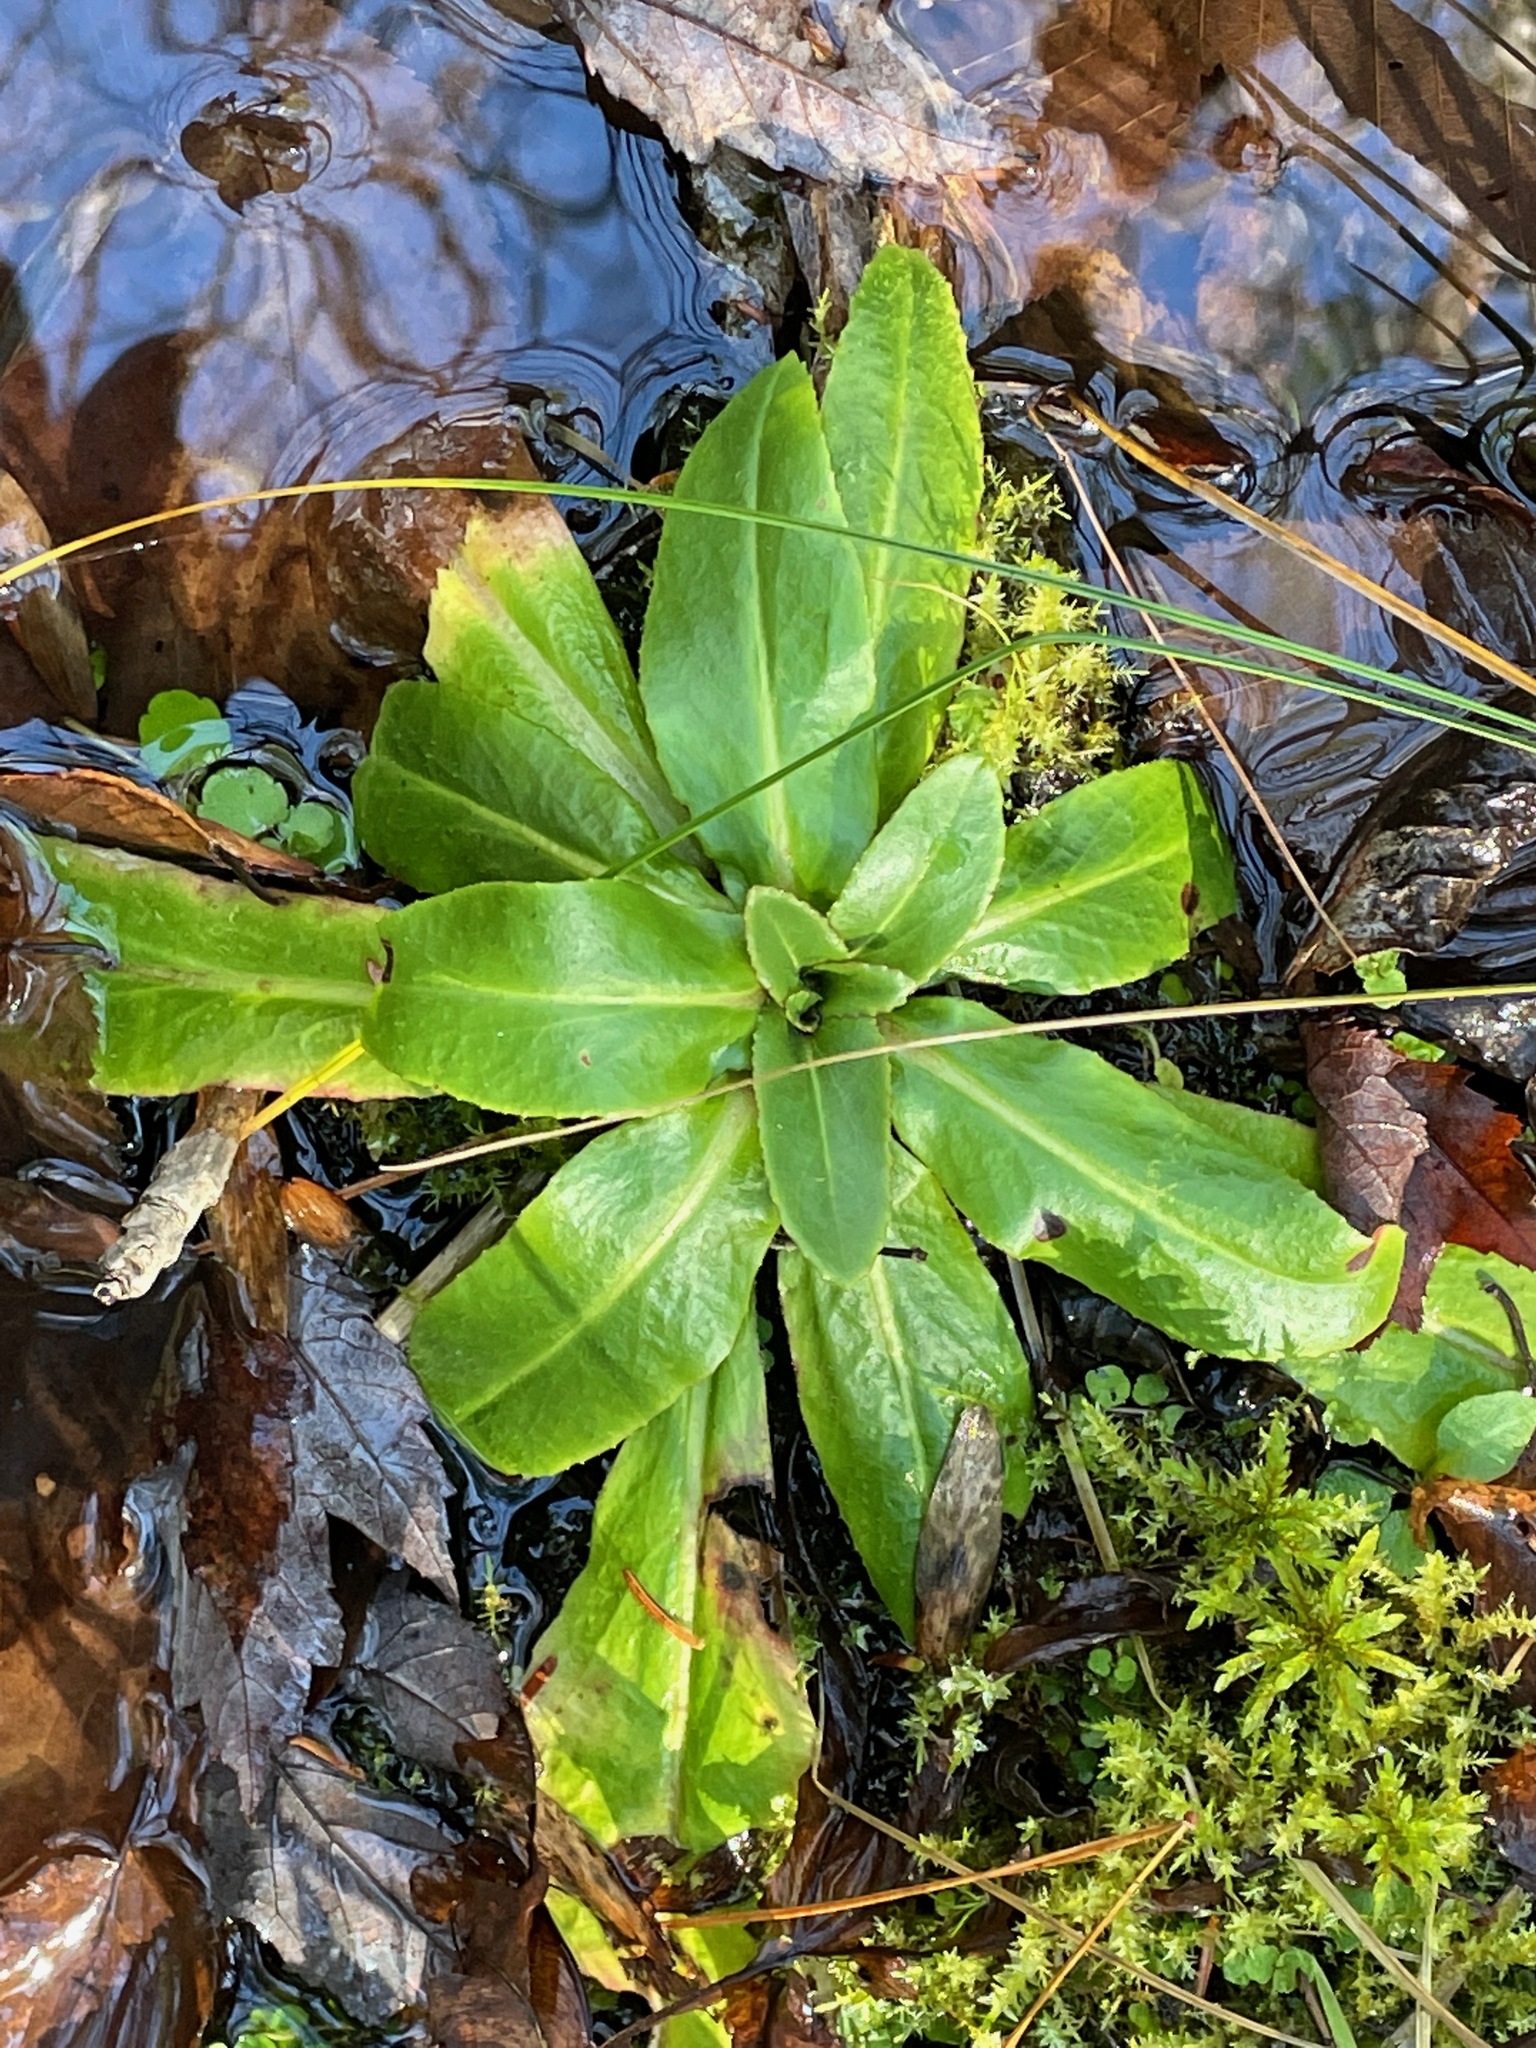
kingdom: Plantae
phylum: Tracheophyta
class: Magnoliopsida
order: Saxifragales
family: Saxifragaceae
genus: Micranthes
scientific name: Micranthes pensylvanica
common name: Marsh saxifrage
